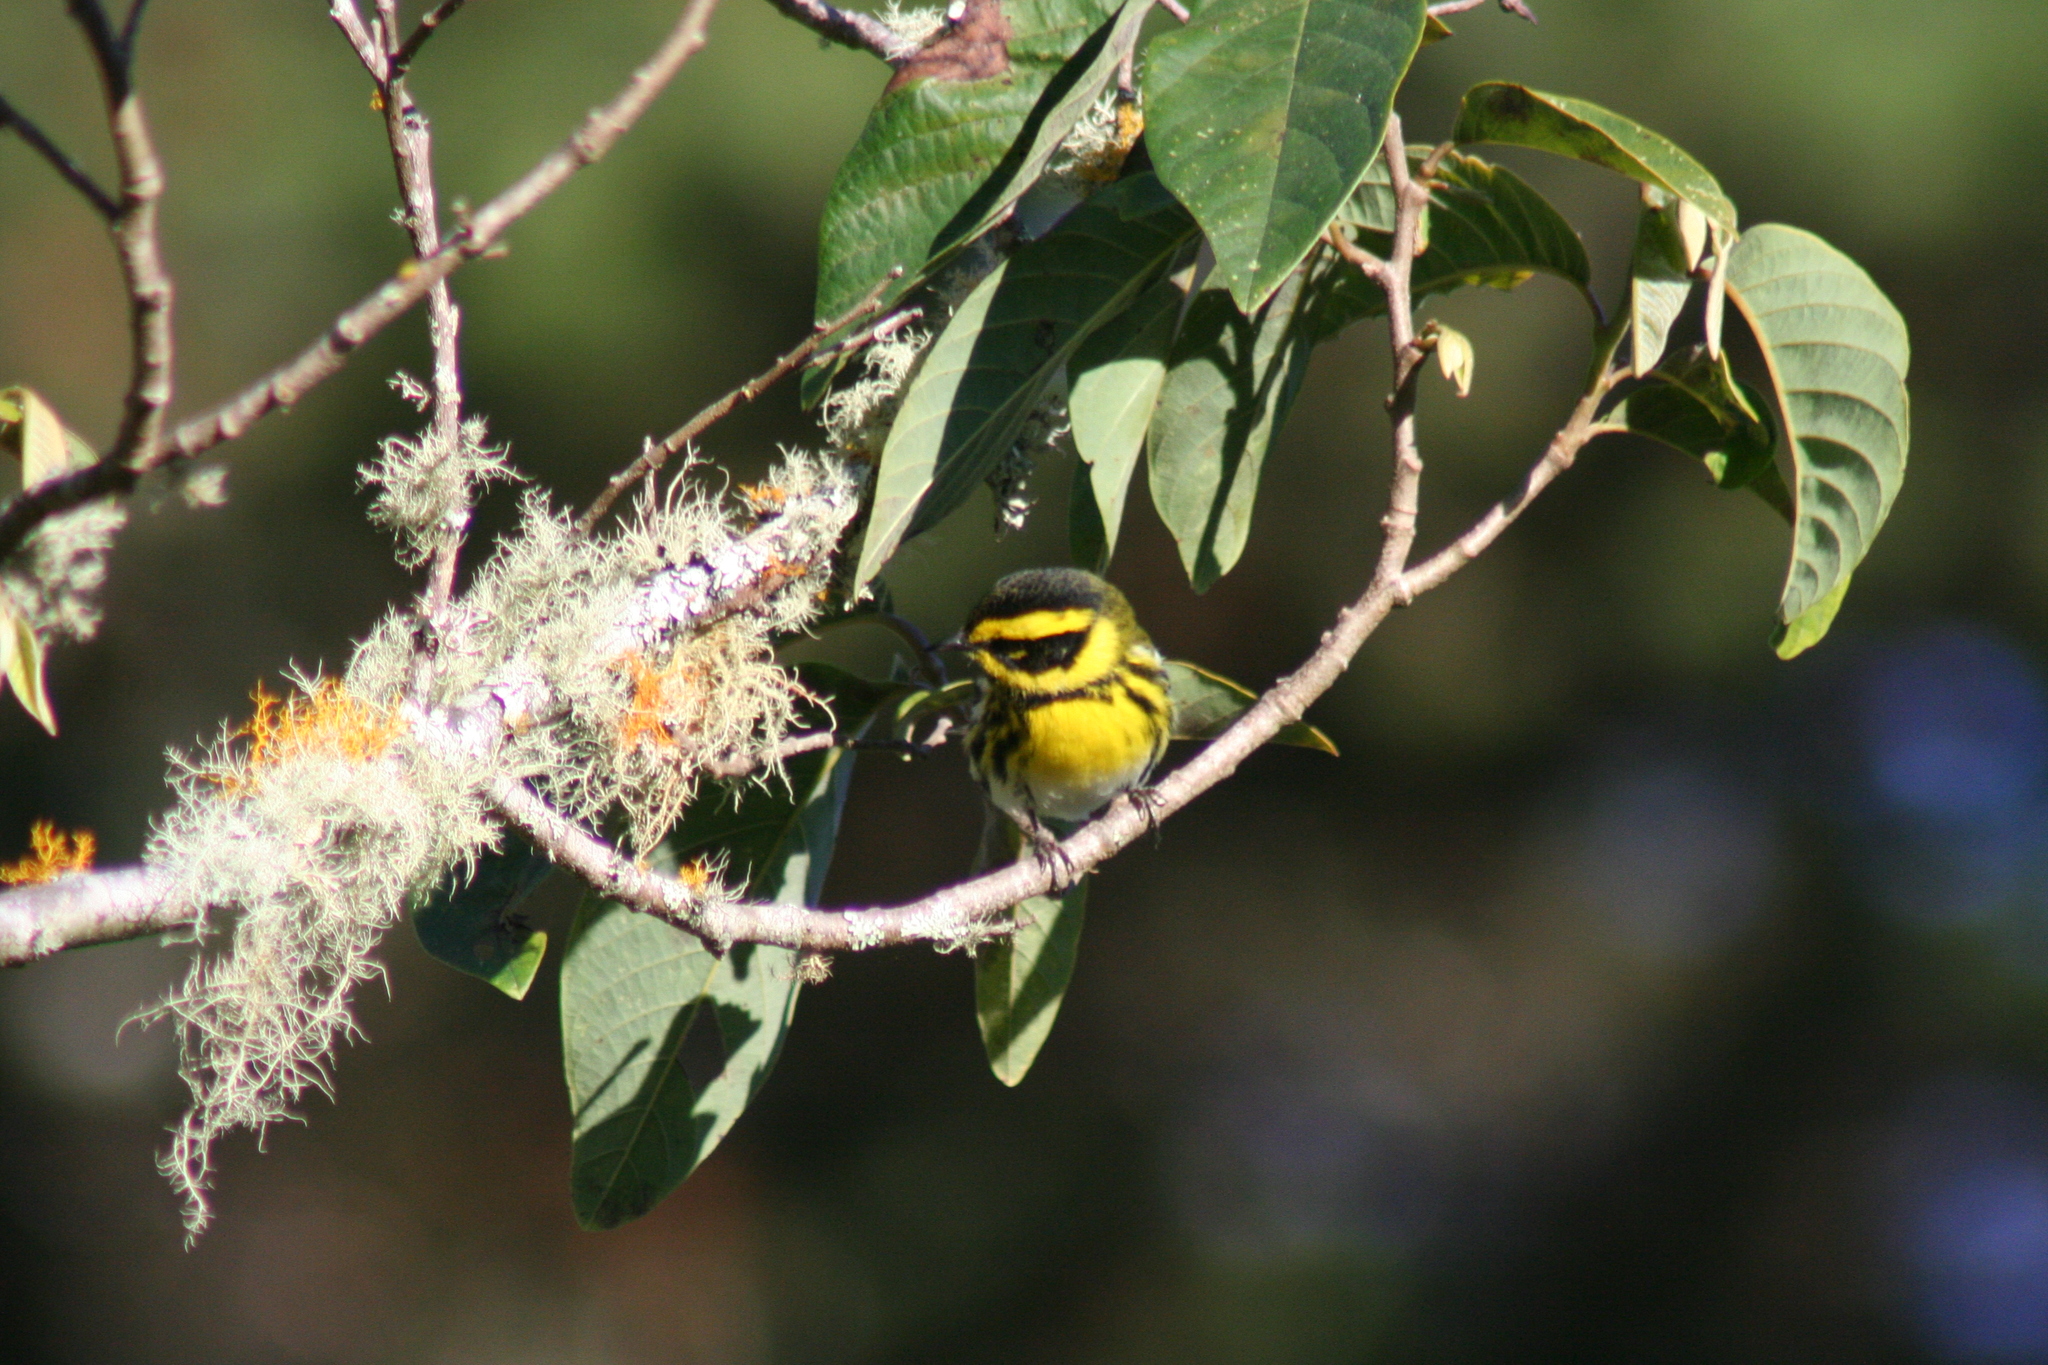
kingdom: Animalia
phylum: Chordata
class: Aves
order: Passeriformes
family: Parulidae
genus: Setophaga
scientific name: Setophaga townsendi
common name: Townsend's warbler
